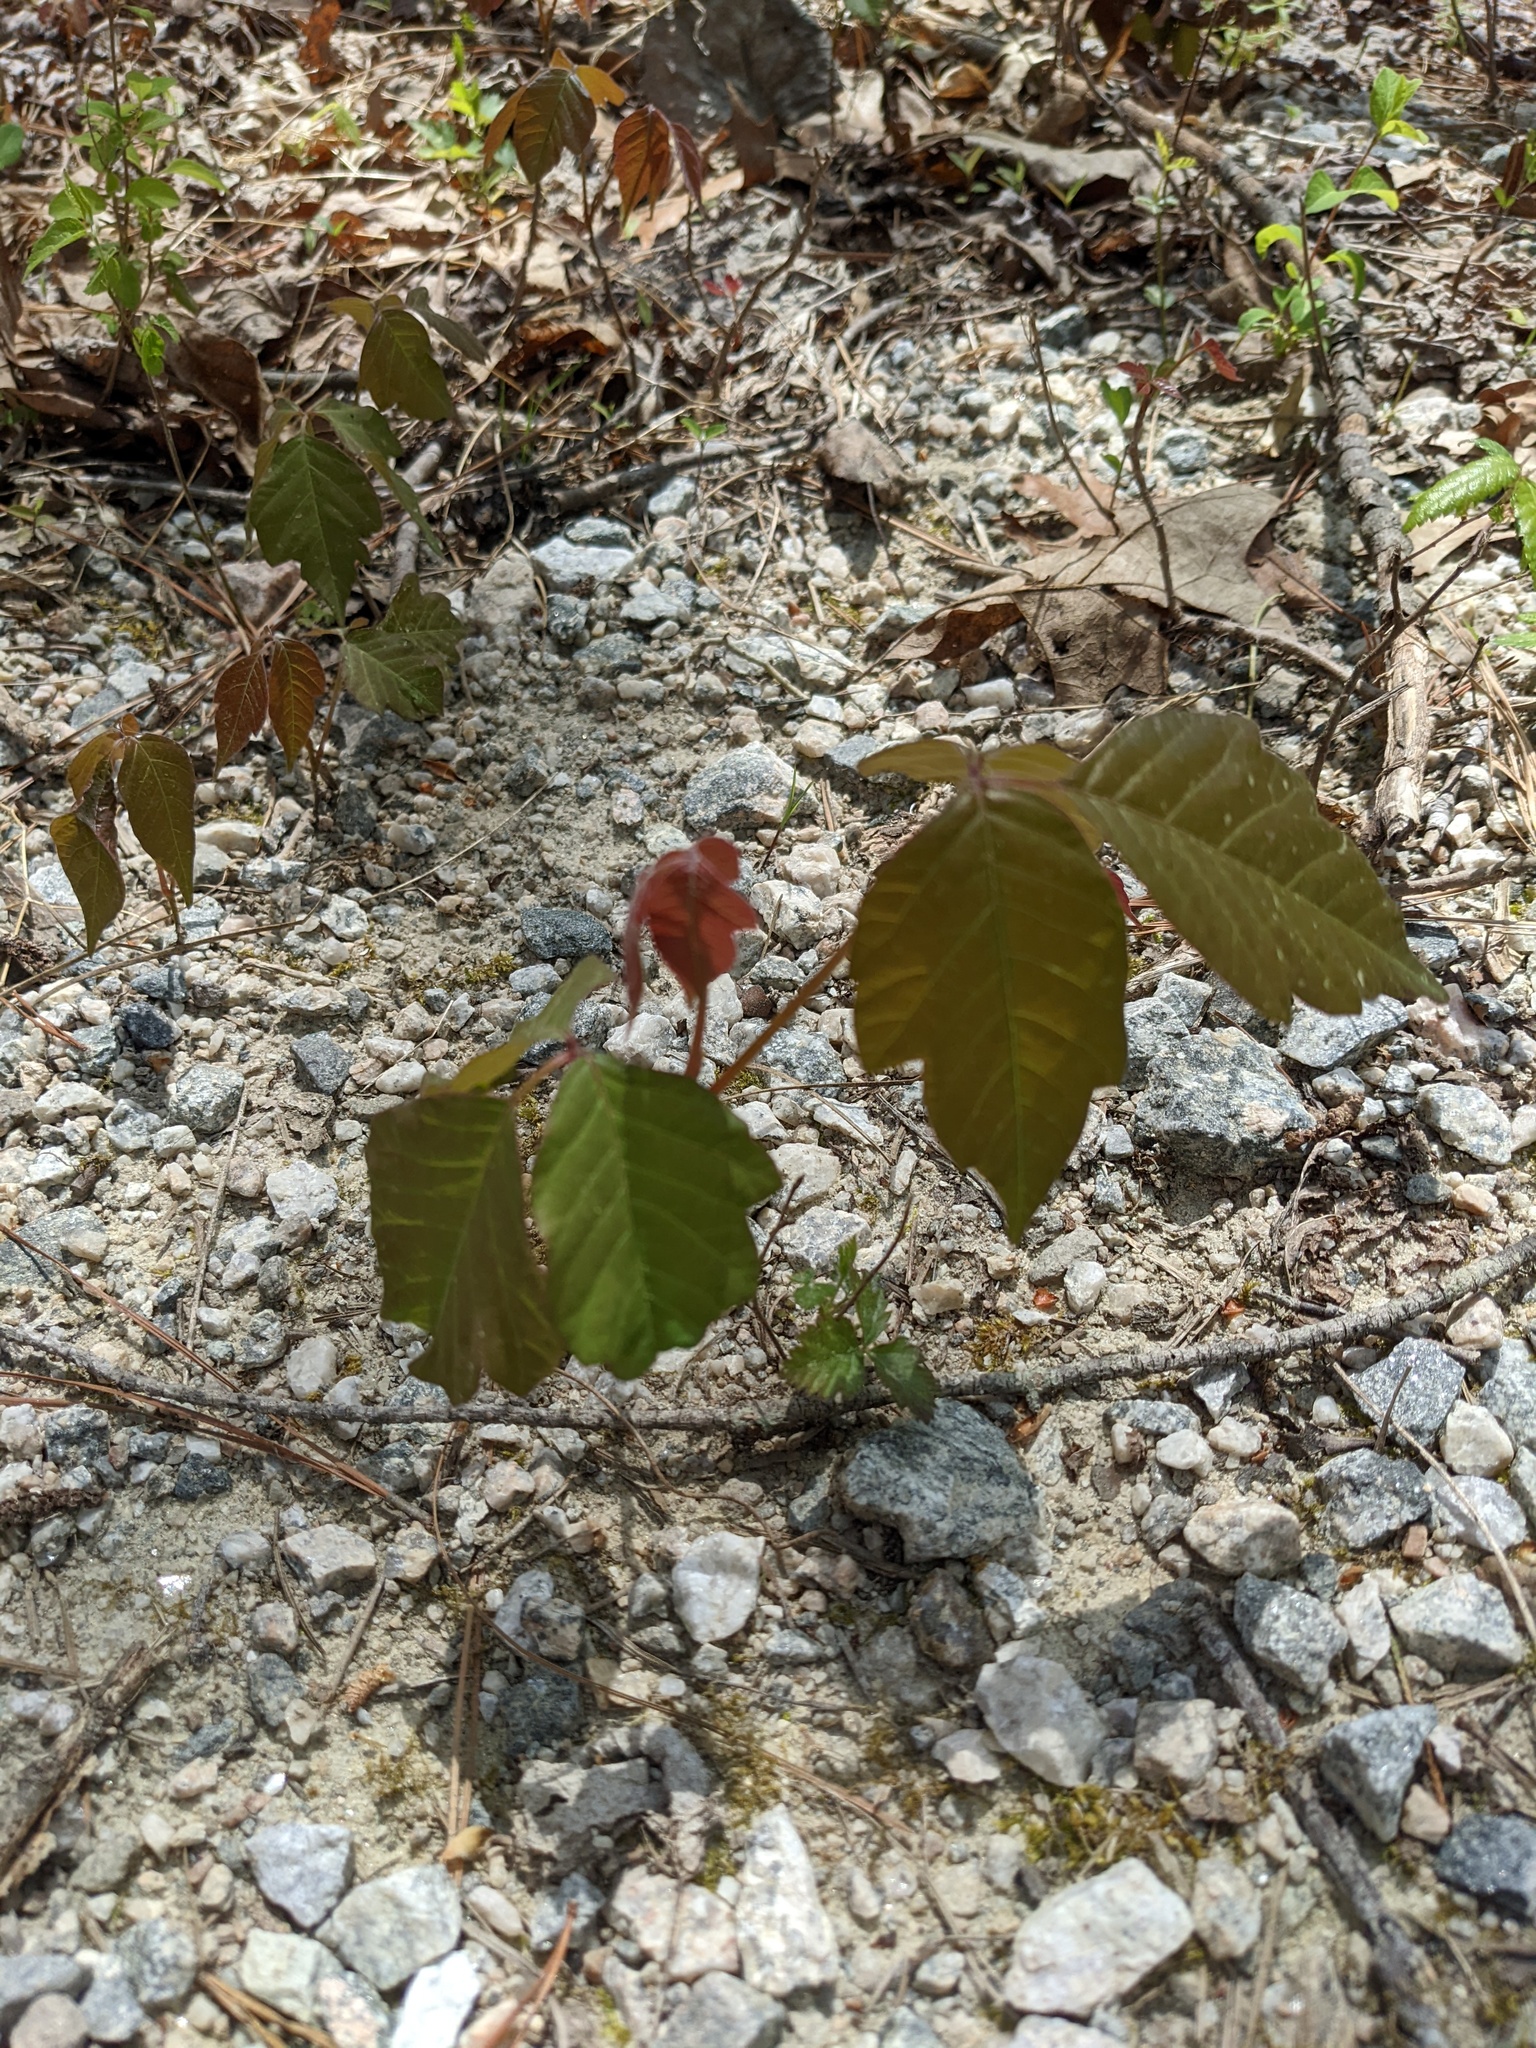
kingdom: Plantae
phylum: Tracheophyta
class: Magnoliopsida
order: Sapindales
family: Anacardiaceae
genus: Toxicodendron
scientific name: Toxicodendron radicans
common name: Poison ivy
